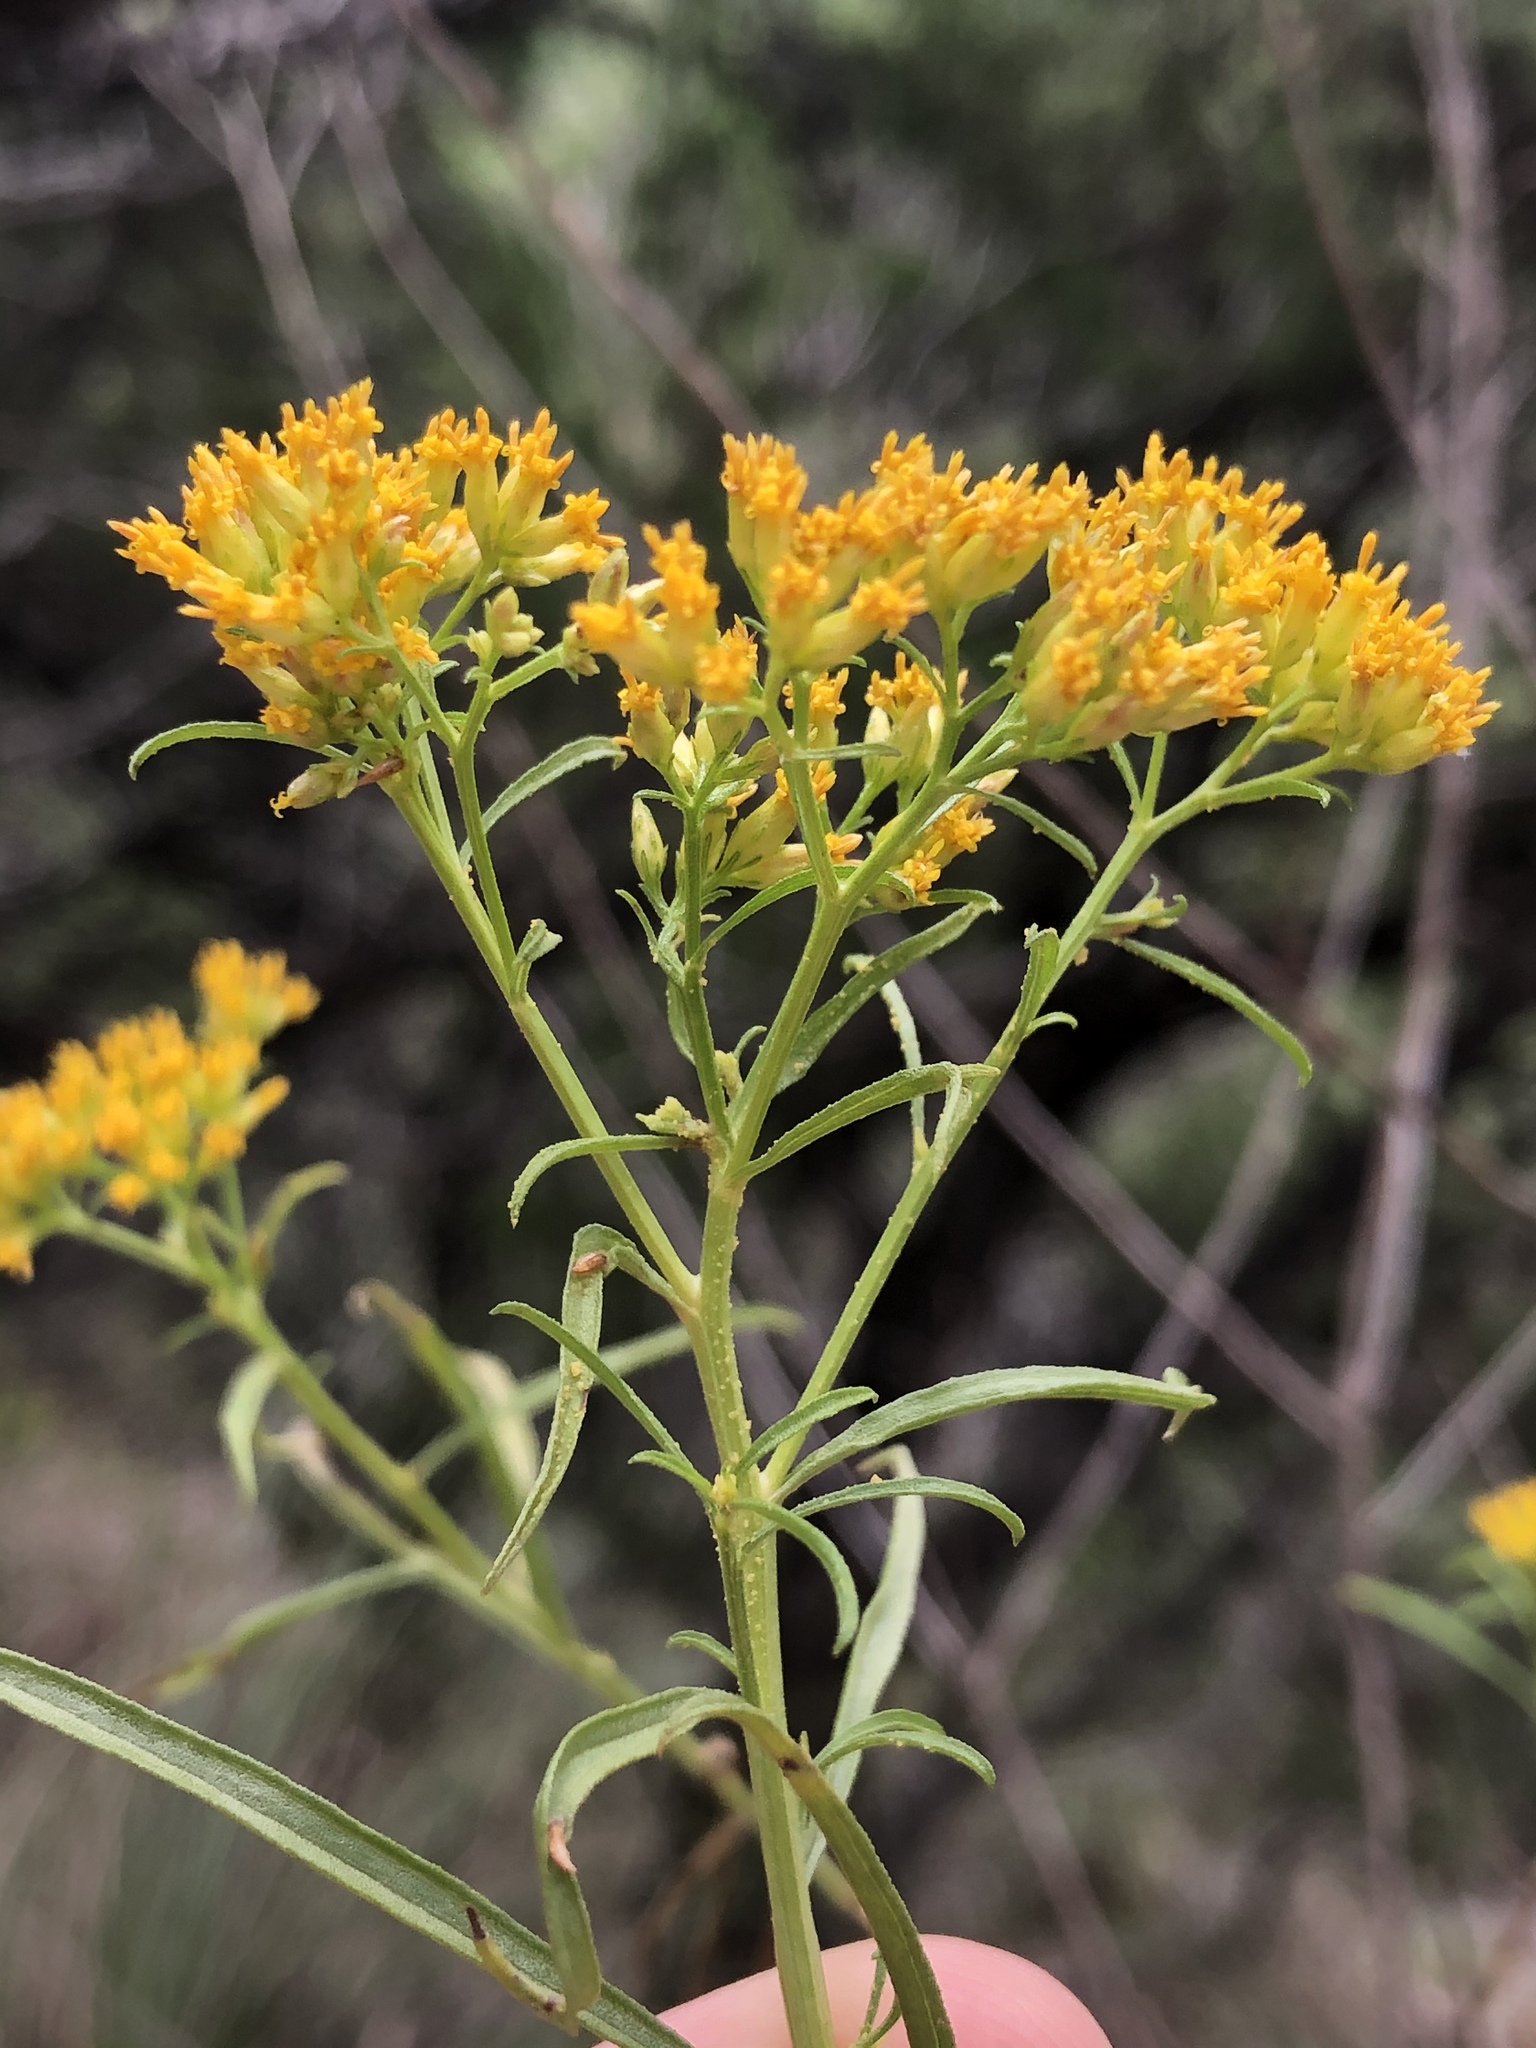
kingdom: Plantae
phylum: Tracheophyta
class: Magnoliopsida
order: Asterales
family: Asteraceae
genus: Gymnosperma
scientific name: Gymnosperma glutinosum
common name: Gumhead
